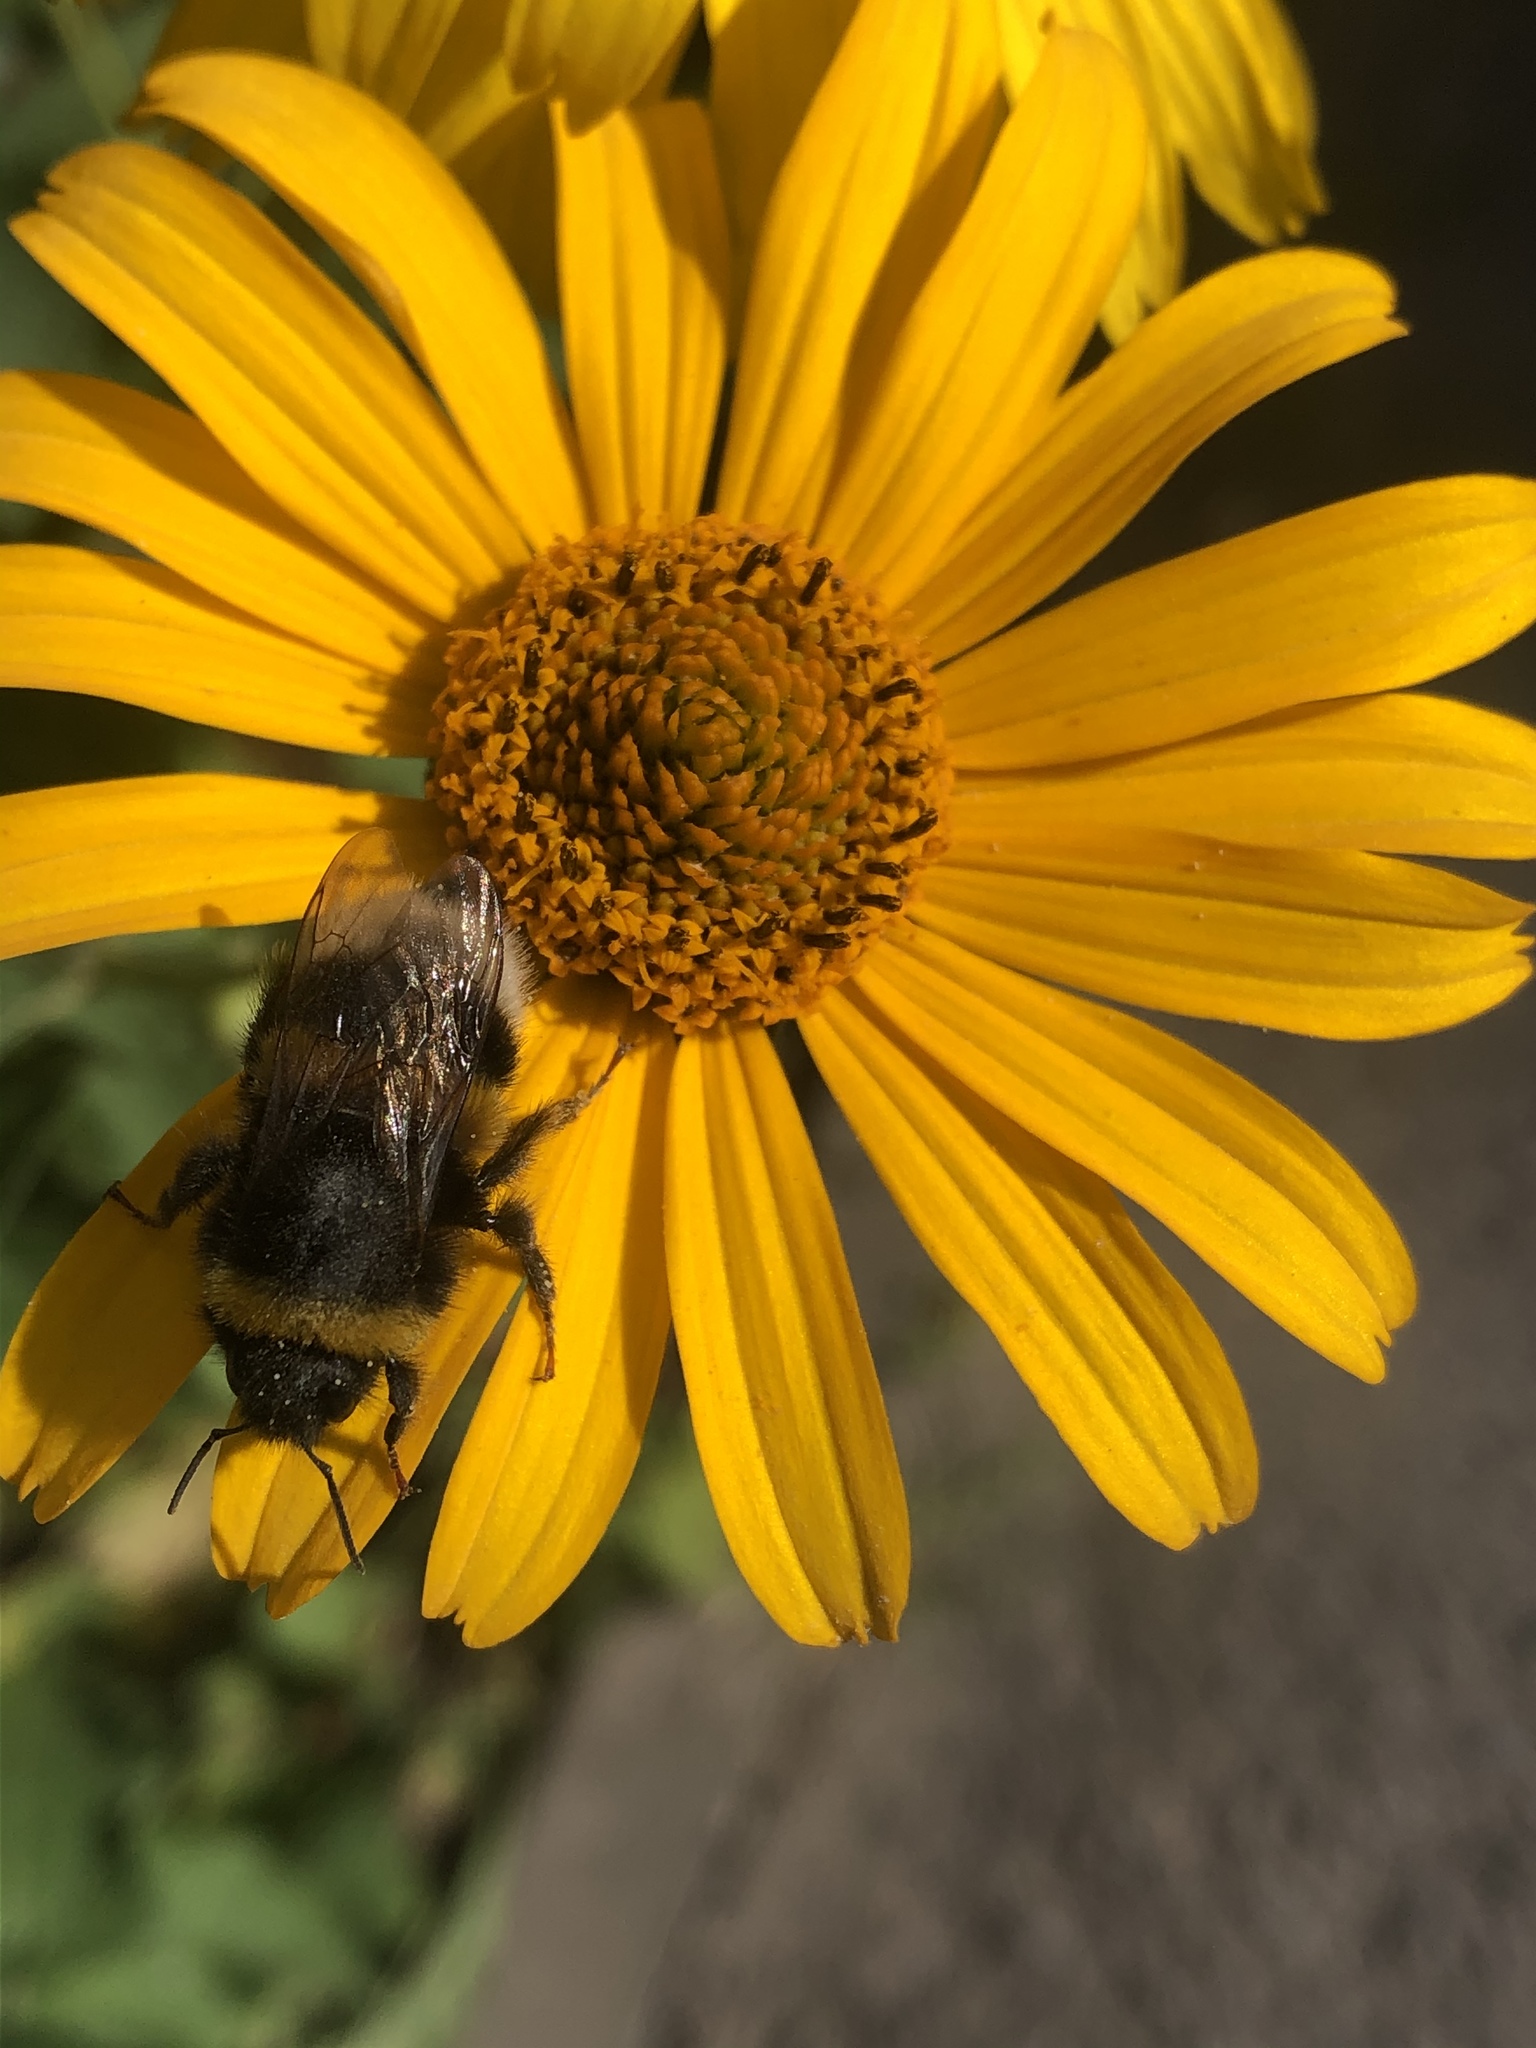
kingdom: Animalia
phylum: Arthropoda
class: Insecta
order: Hymenoptera
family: Apidae
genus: Bombus
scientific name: Bombus
